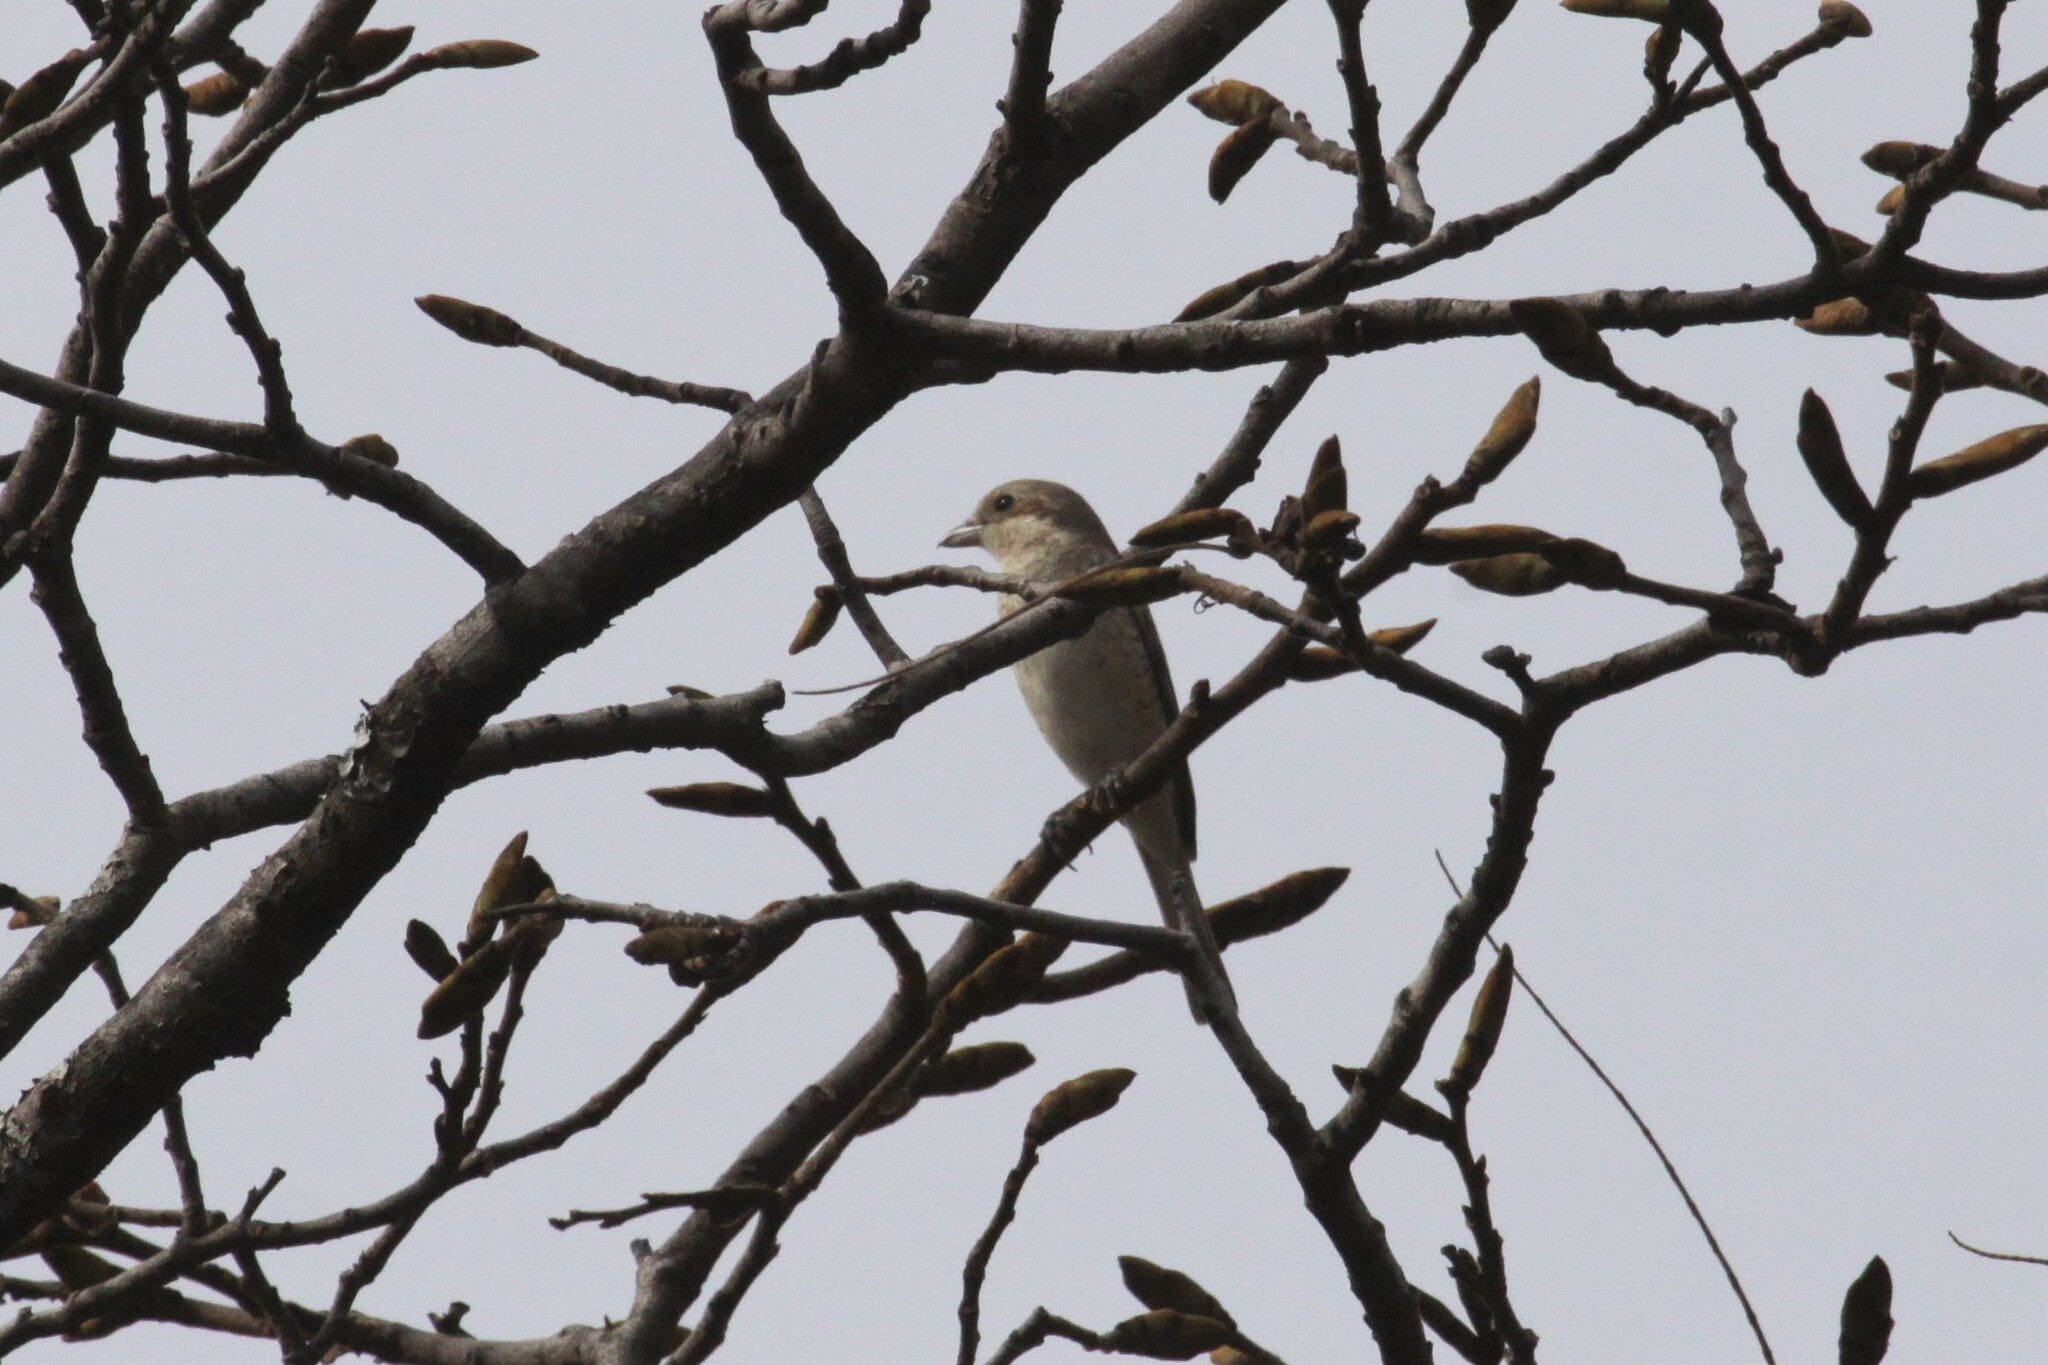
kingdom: Animalia
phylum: Chordata
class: Aves
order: Passeriformes
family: Laniidae
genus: Lanius
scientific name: Lanius collurio
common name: Red-backed shrike
